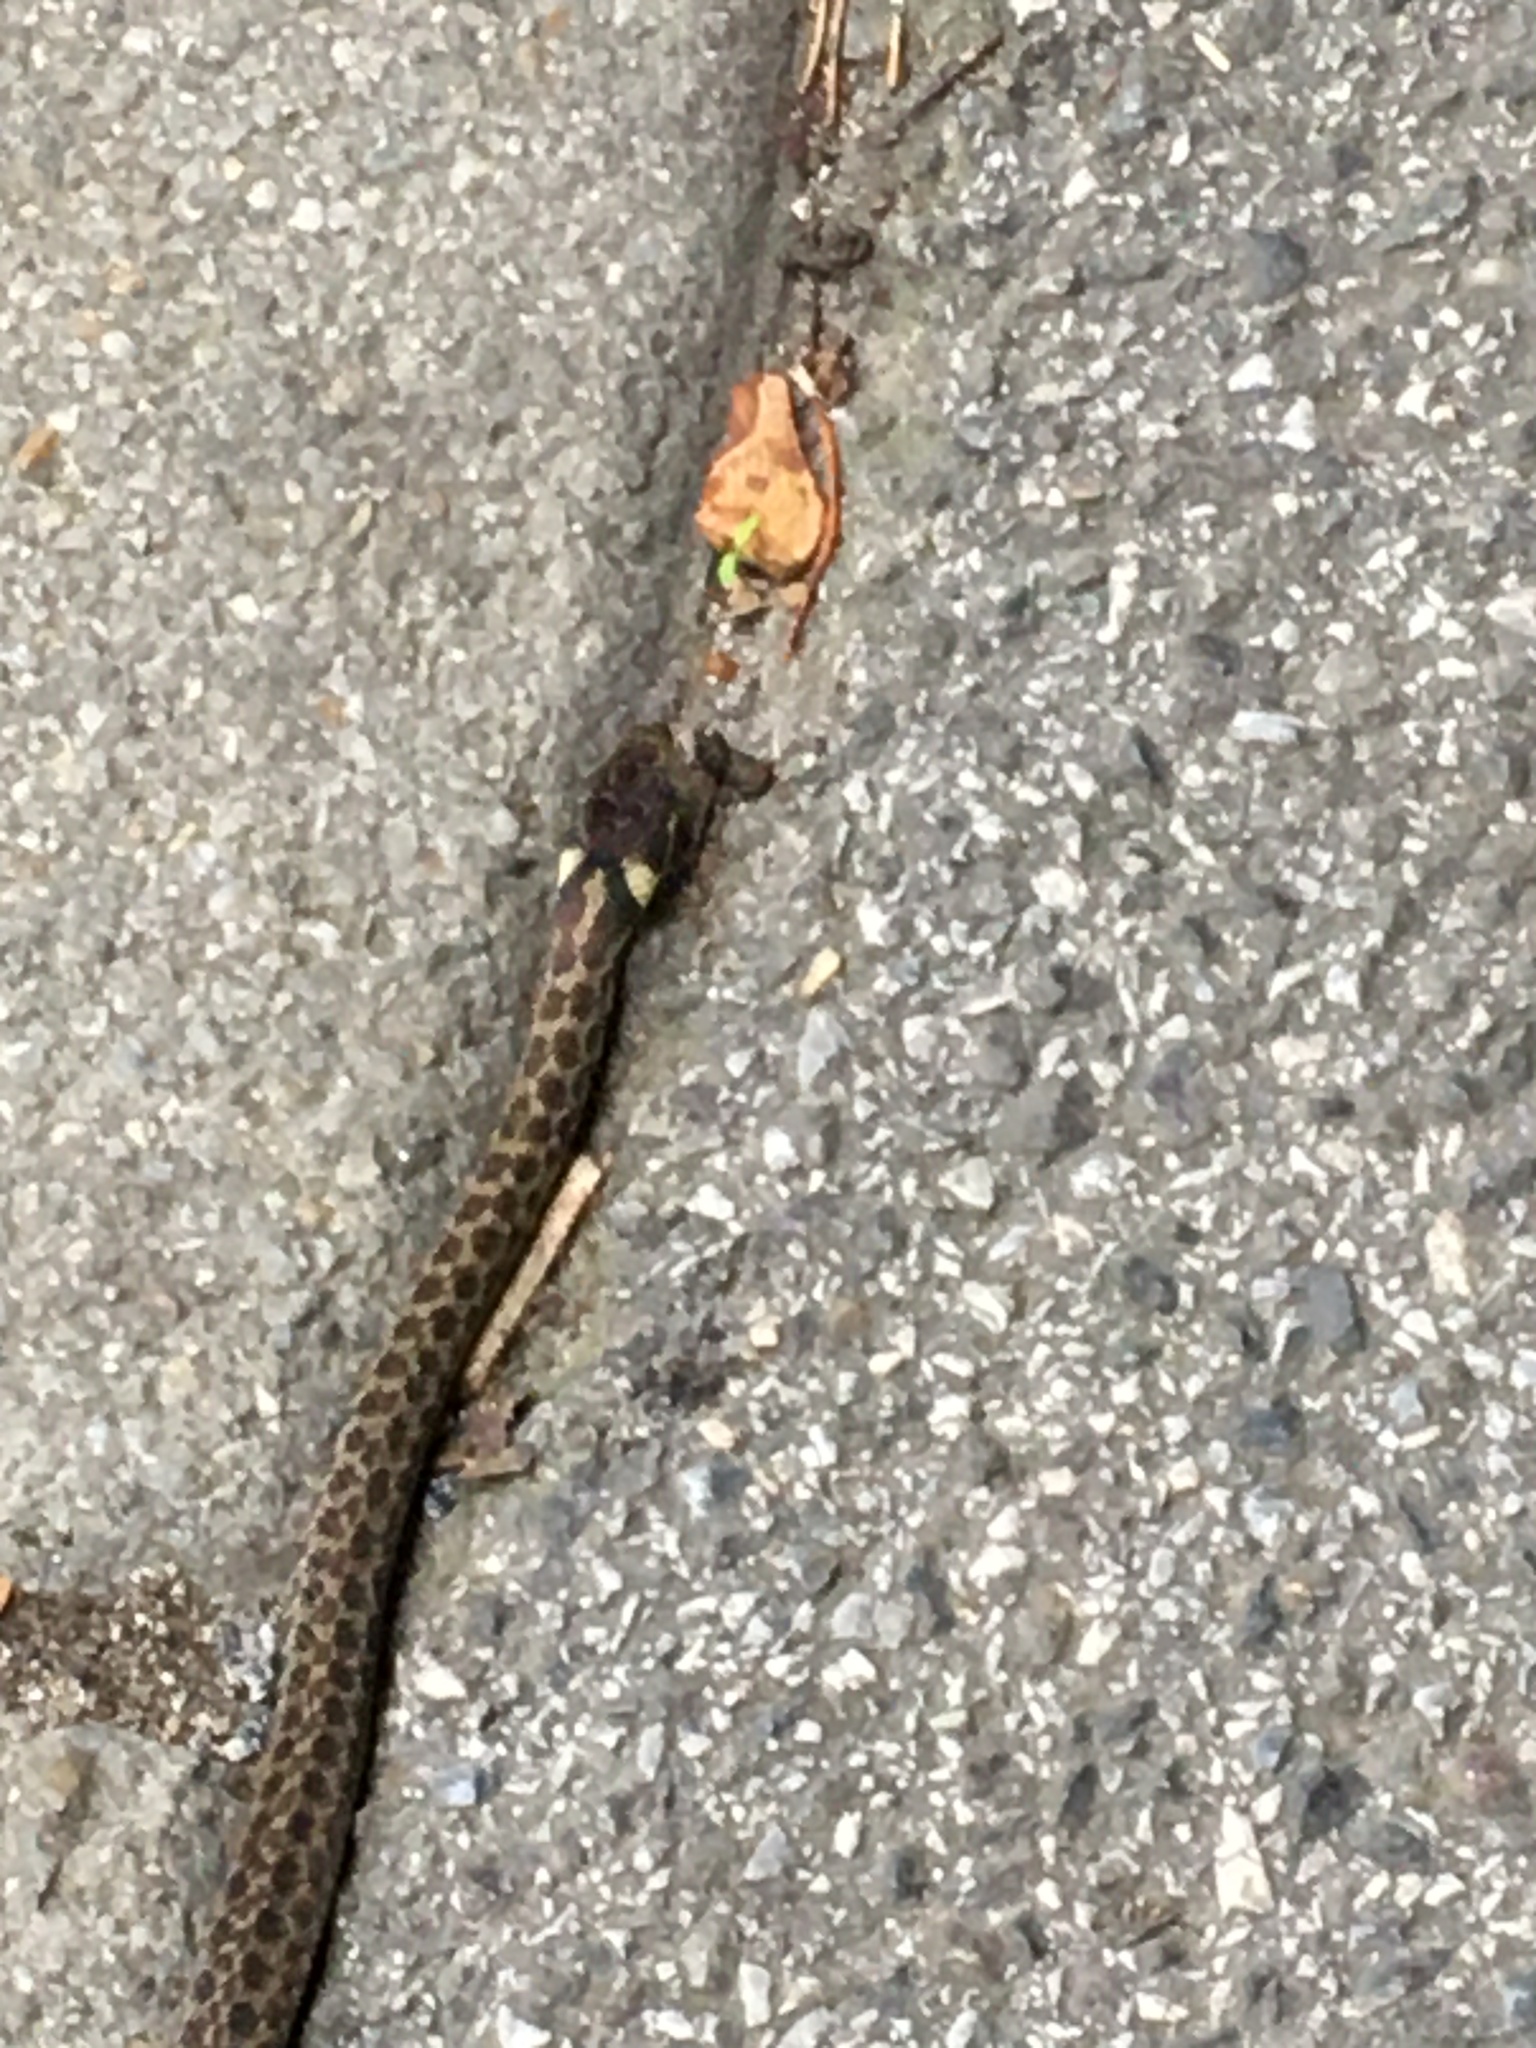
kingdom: Animalia
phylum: Chordata
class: Squamata
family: Colubridae
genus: Zamenis
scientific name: Zamenis longissimus
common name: Aesculapean snake
